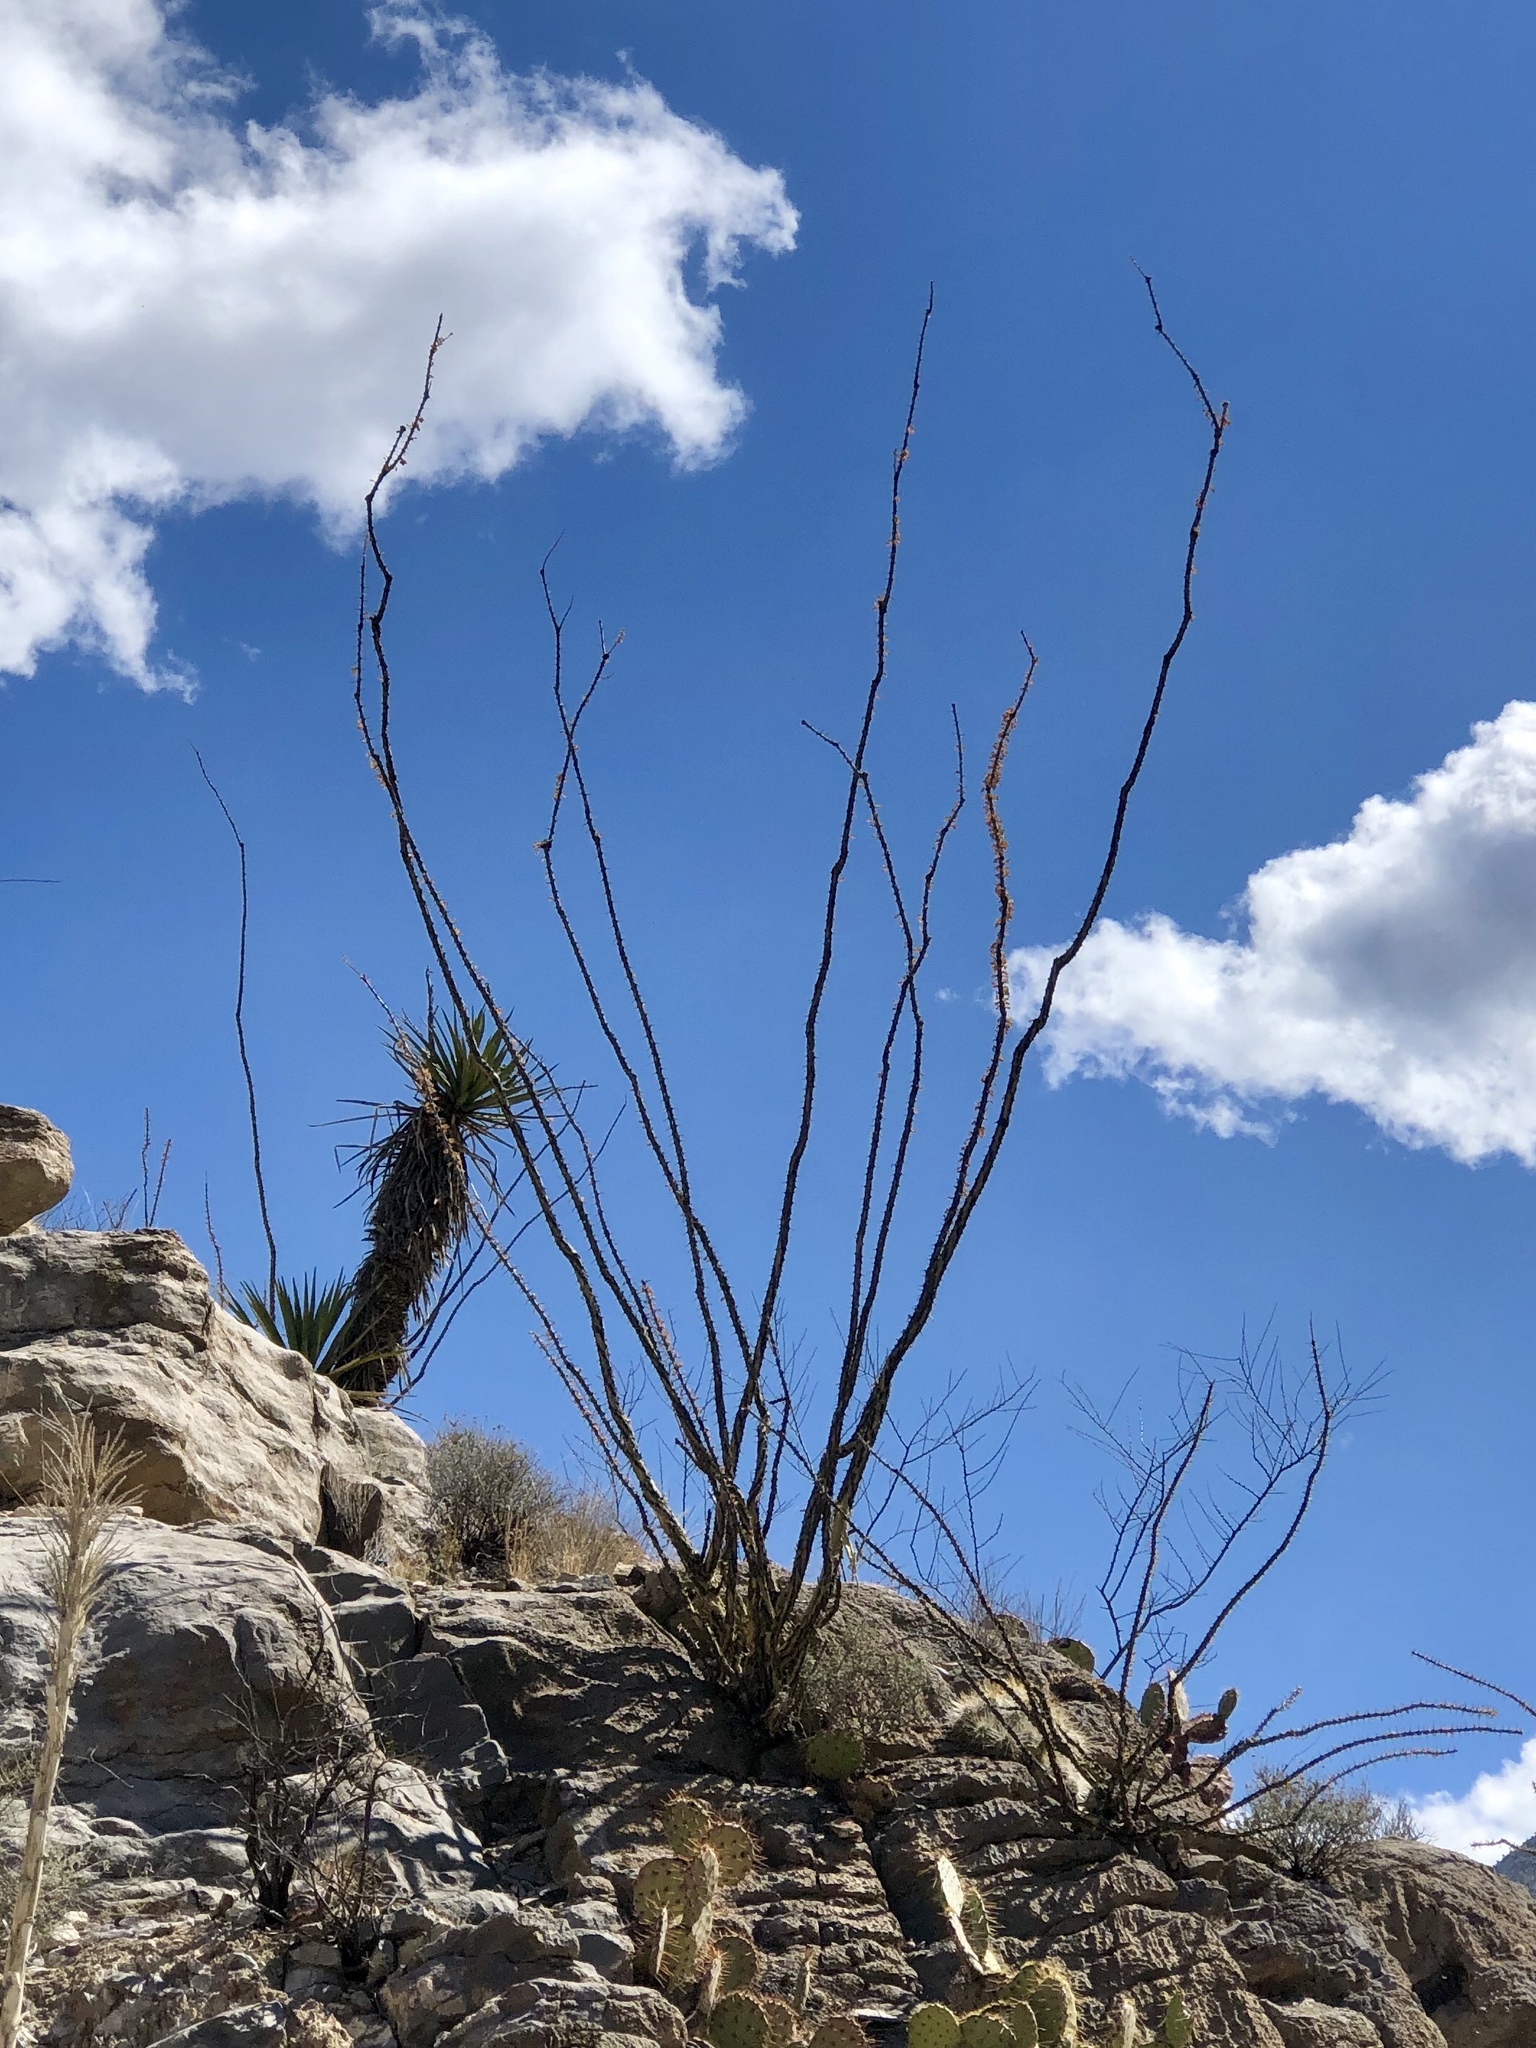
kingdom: Plantae
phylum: Tracheophyta
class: Magnoliopsida
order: Ericales
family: Fouquieriaceae
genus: Fouquieria
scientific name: Fouquieria splendens
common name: Vine-cactus
